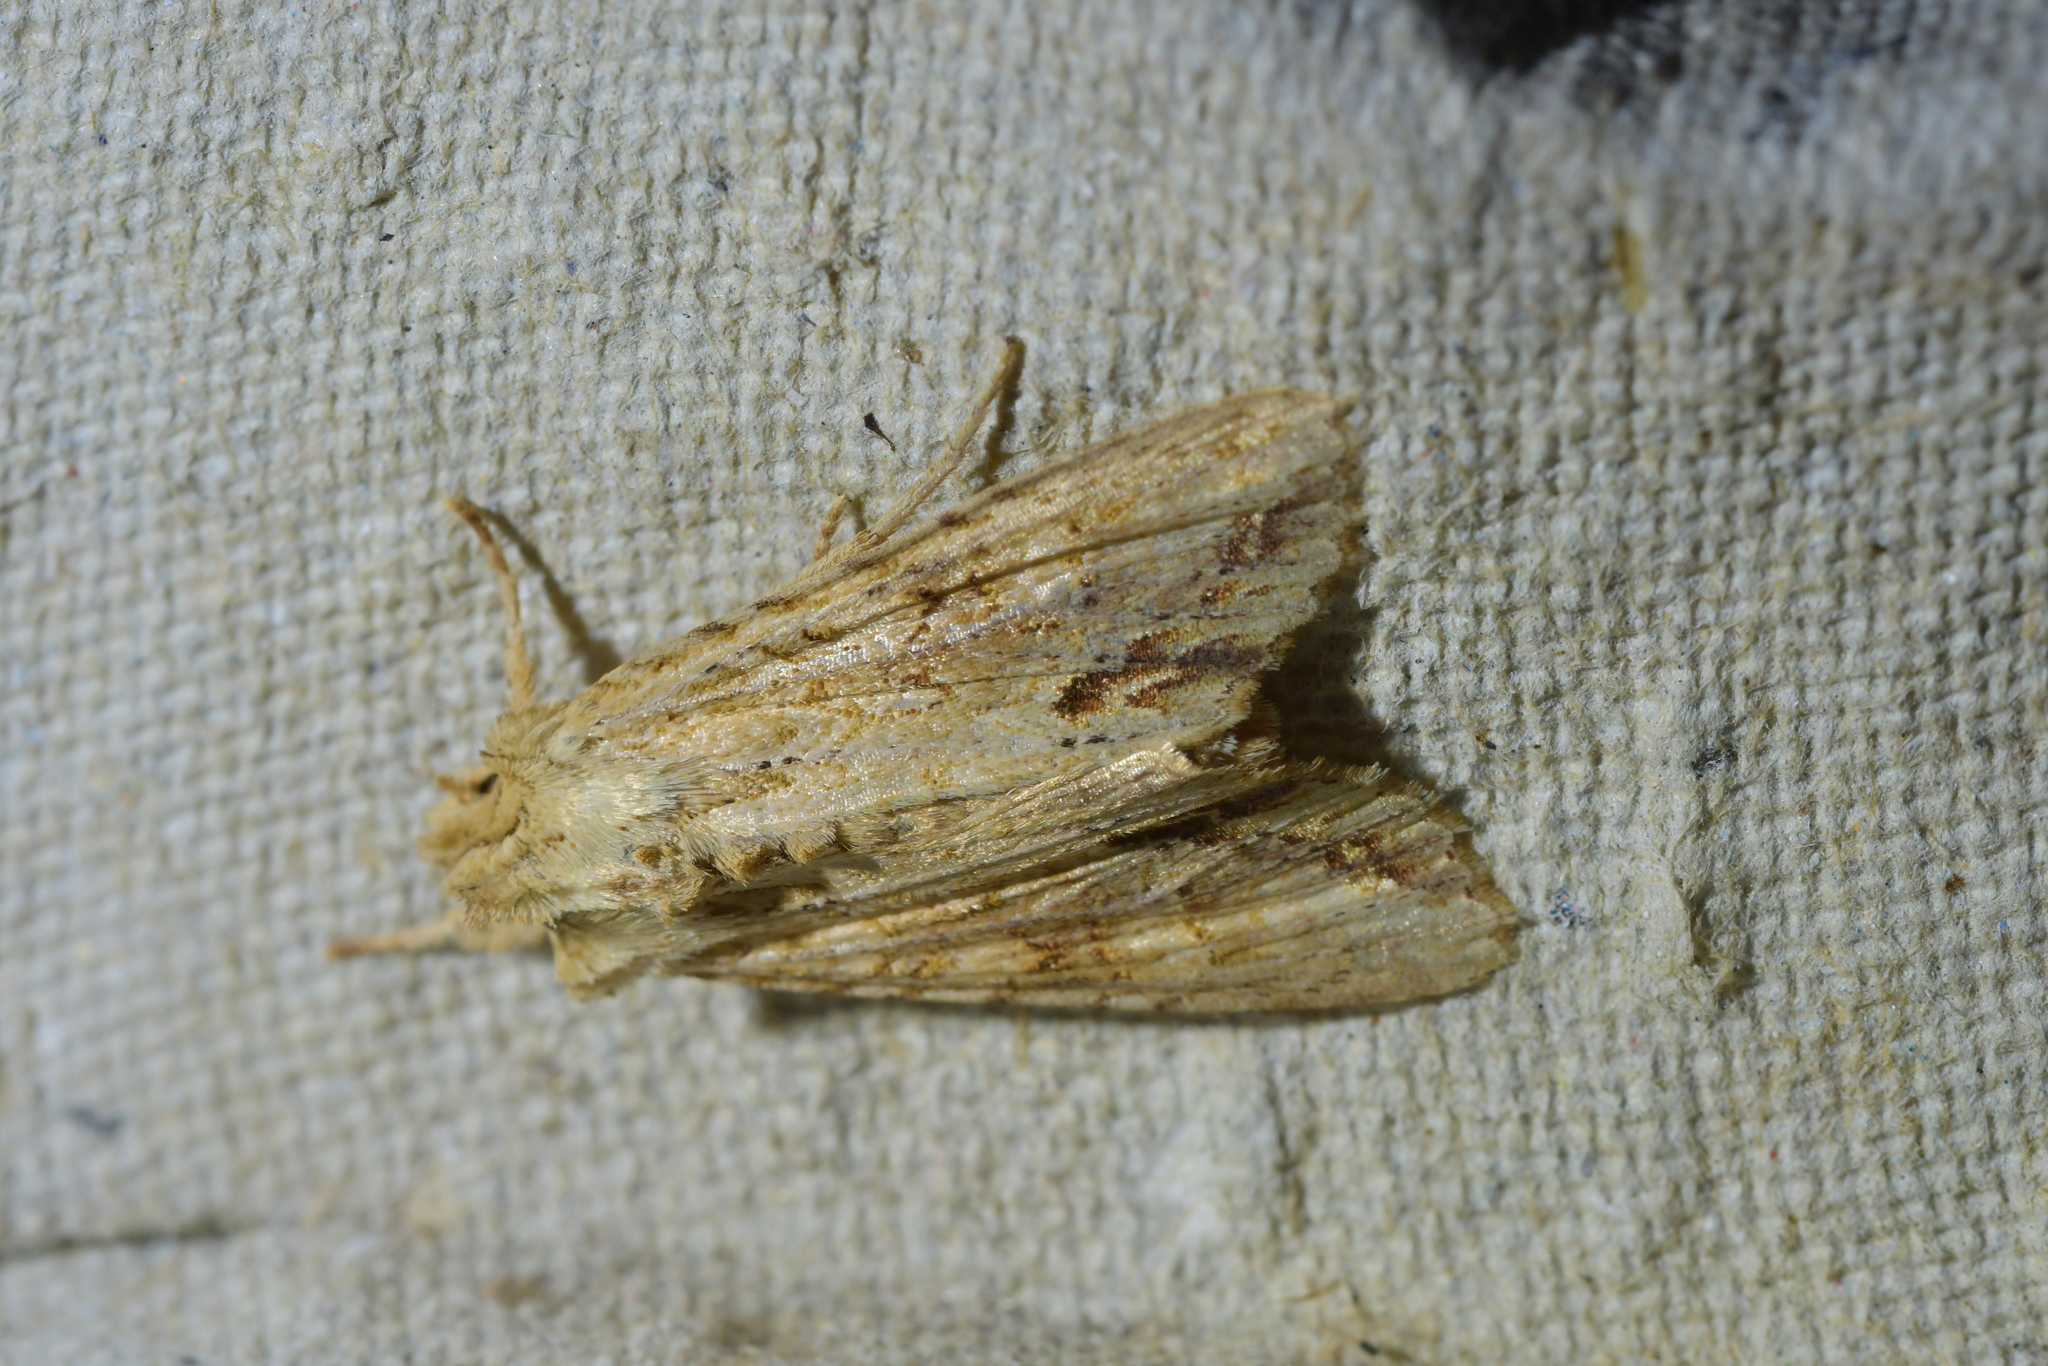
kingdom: Animalia
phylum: Arthropoda
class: Insecta
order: Lepidoptera
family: Noctuidae
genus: Ichneutica
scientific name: Ichneutica mollis
